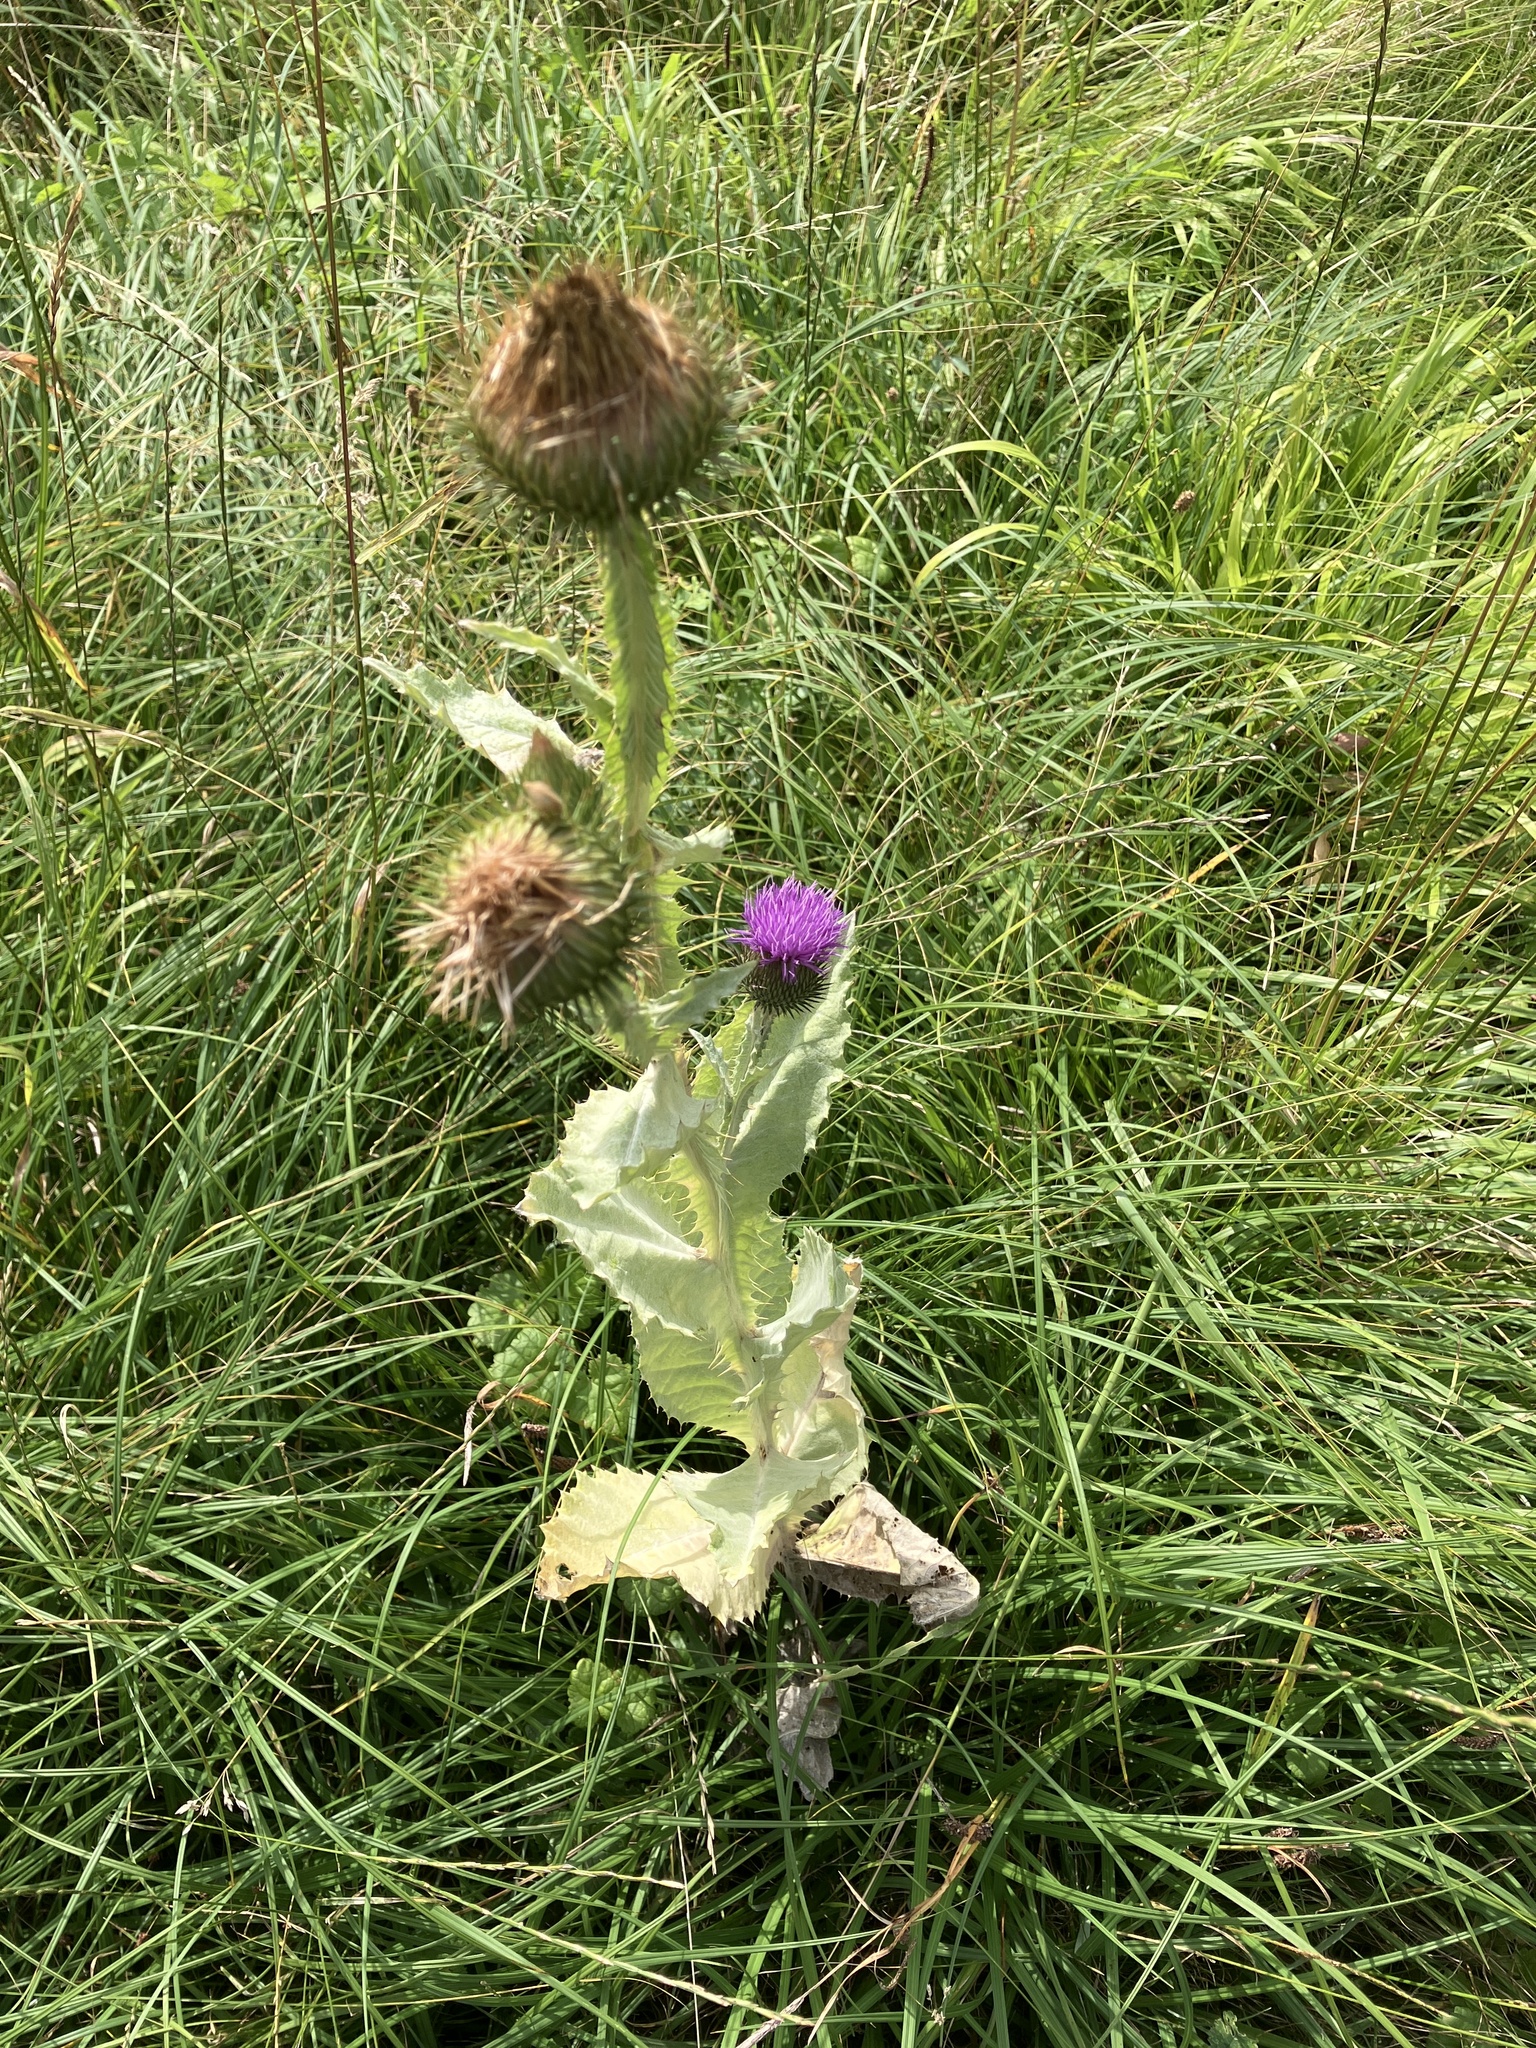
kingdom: Plantae
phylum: Tracheophyta
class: Magnoliopsida
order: Asterales
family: Asteraceae
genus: Onopordum
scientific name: Onopordum acanthium
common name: Scotch thistle
